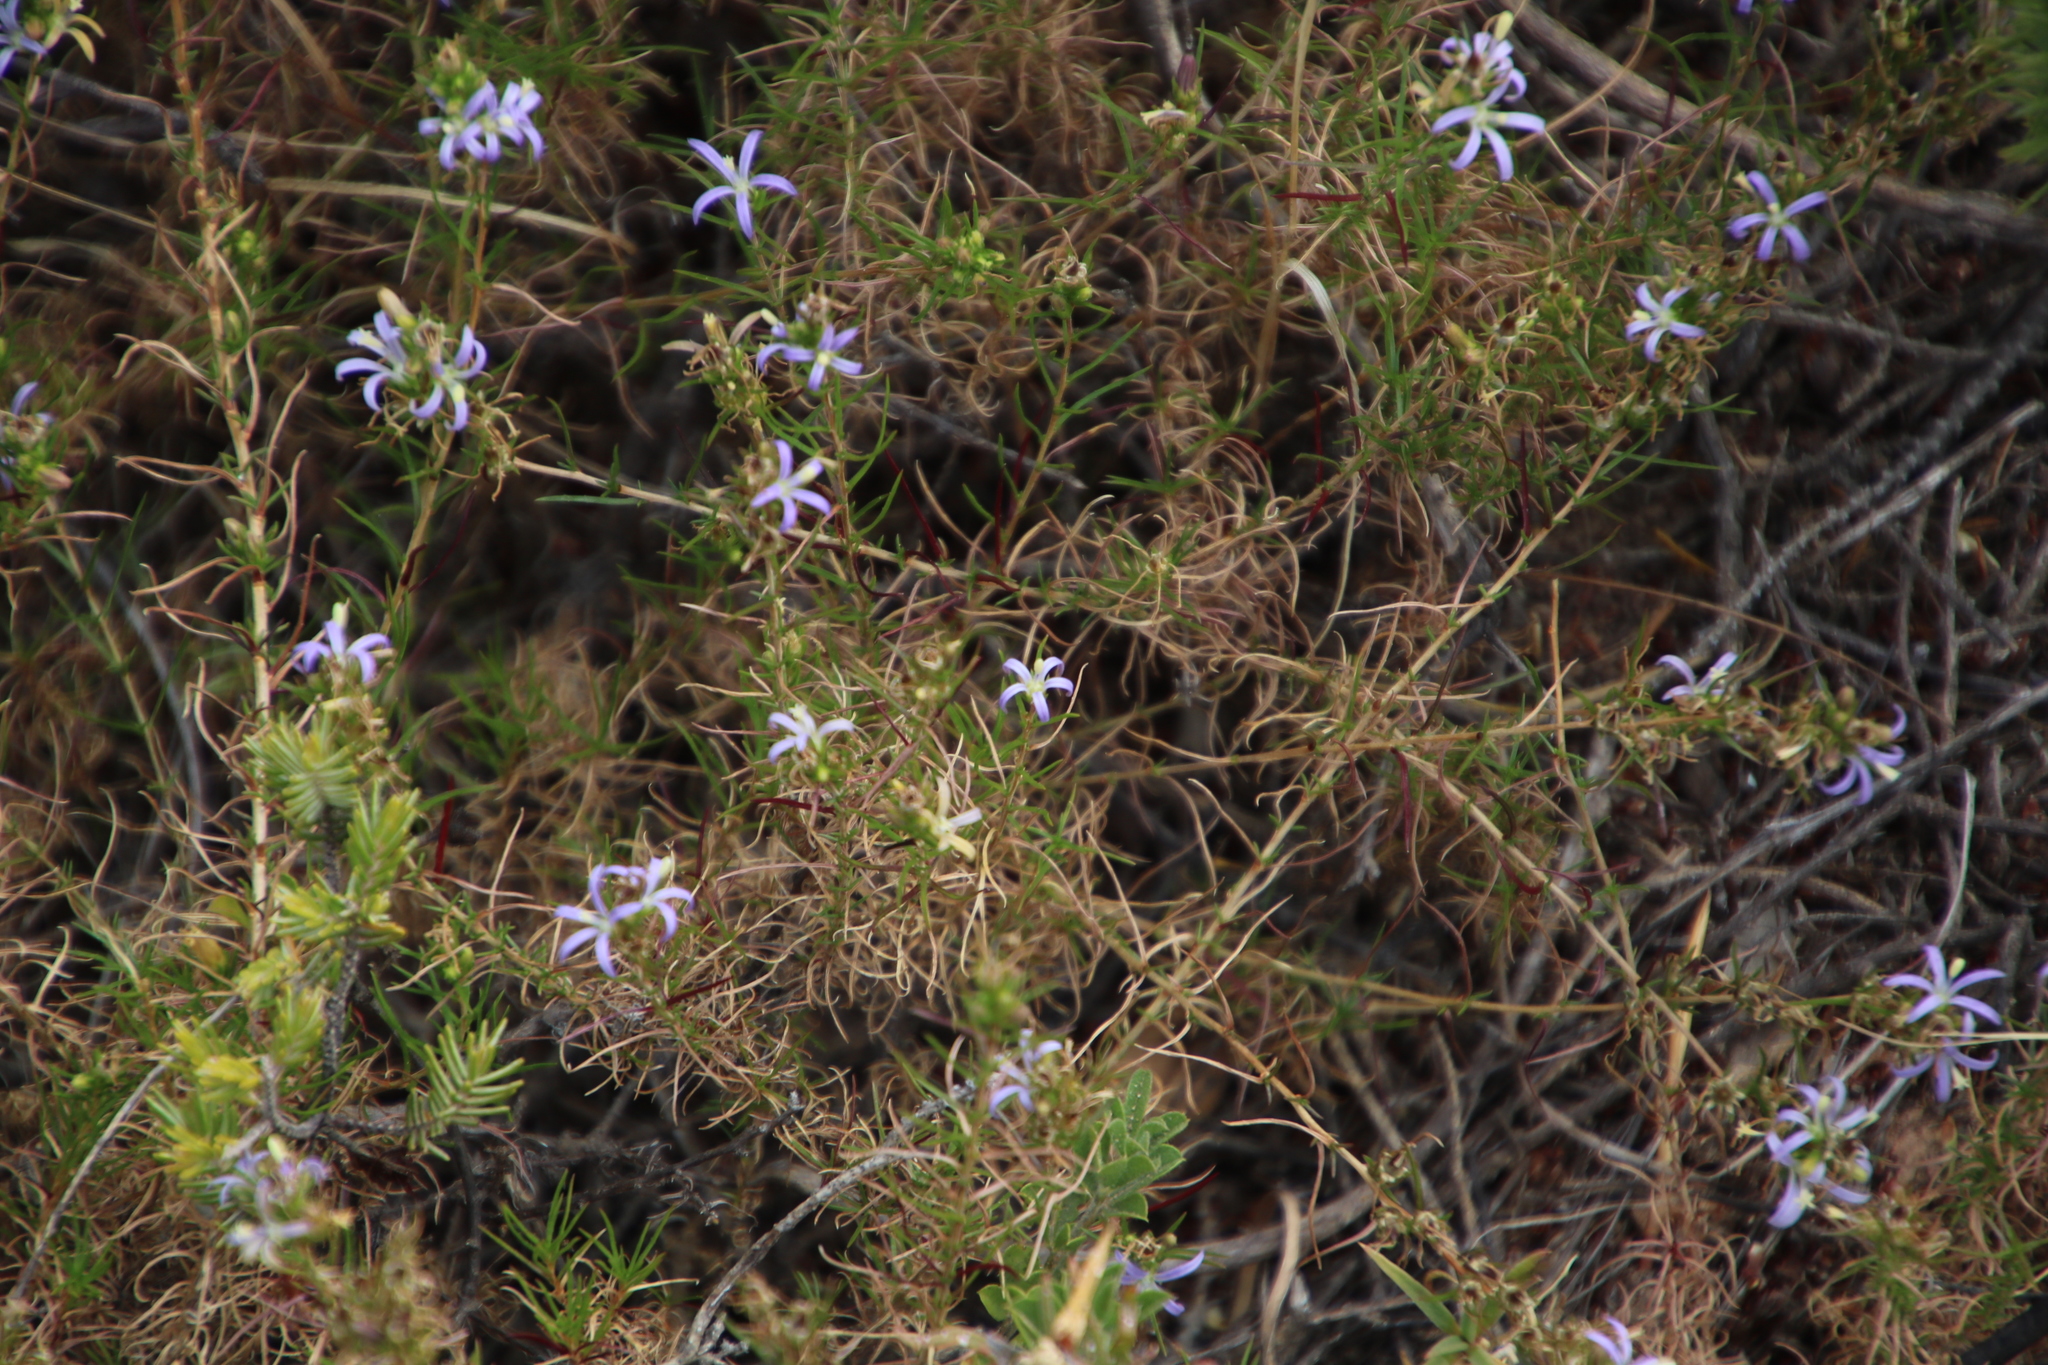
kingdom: Plantae
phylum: Tracheophyta
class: Magnoliopsida
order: Asterales
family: Campanulaceae
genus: Wahlenbergia
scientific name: Wahlenbergia subulata
